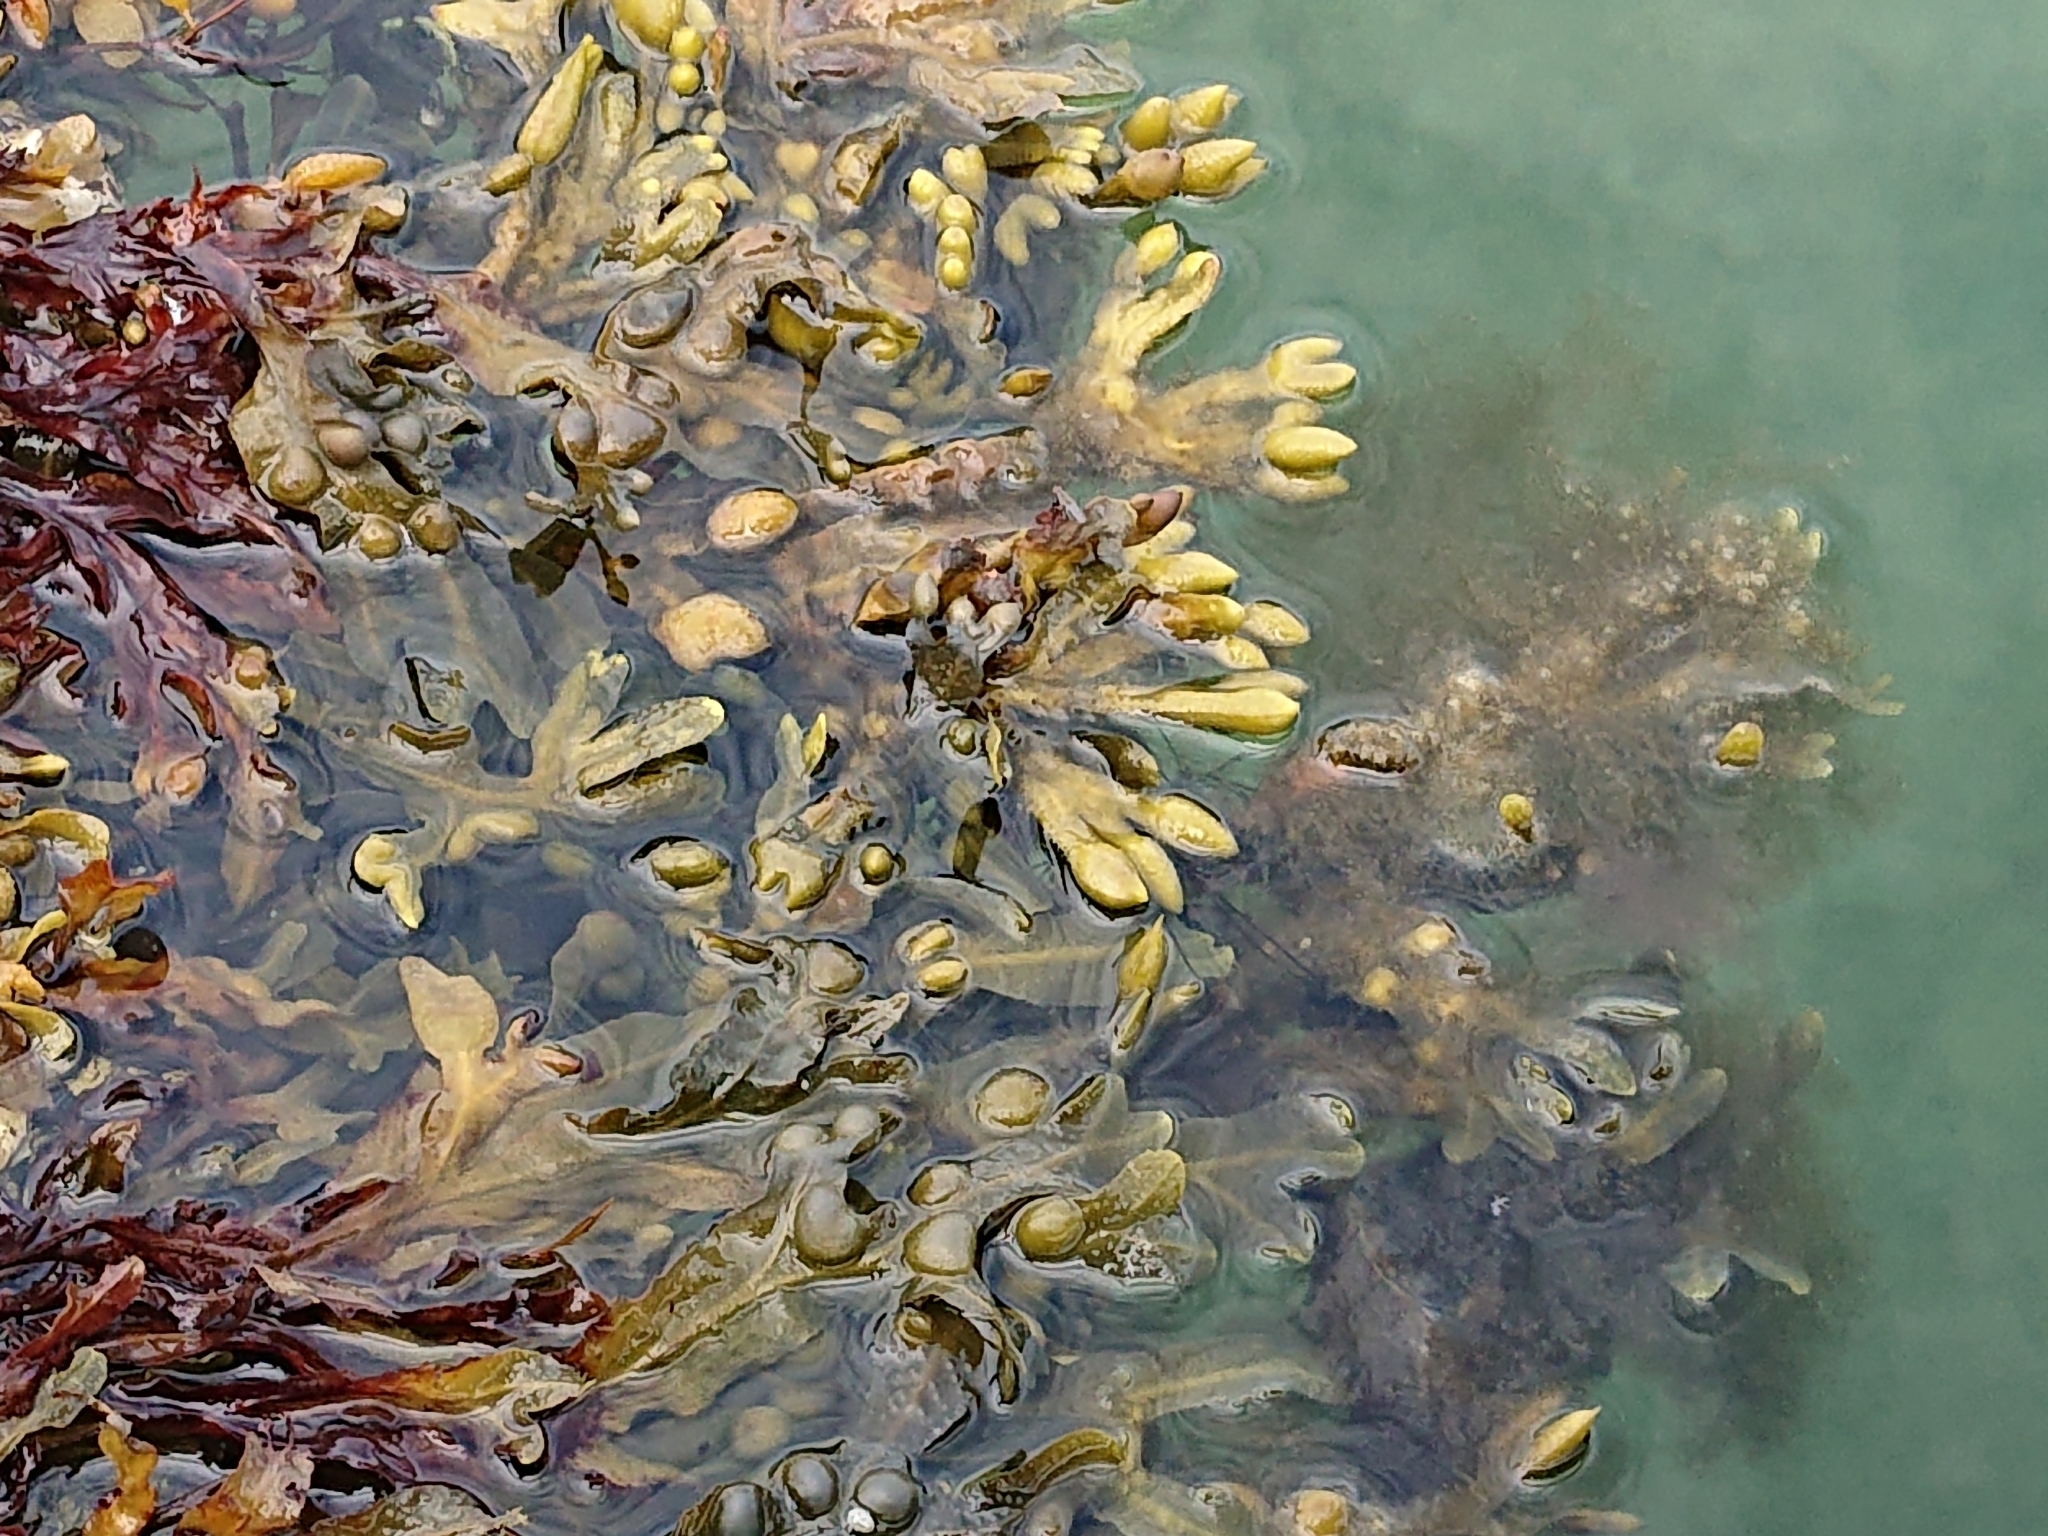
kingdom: Chromista
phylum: Ochrophyta
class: Phaeophyceae
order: Fucales
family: Fucaceae
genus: Fucus
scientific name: Fucus vesiculosus
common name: Bladder wrack
